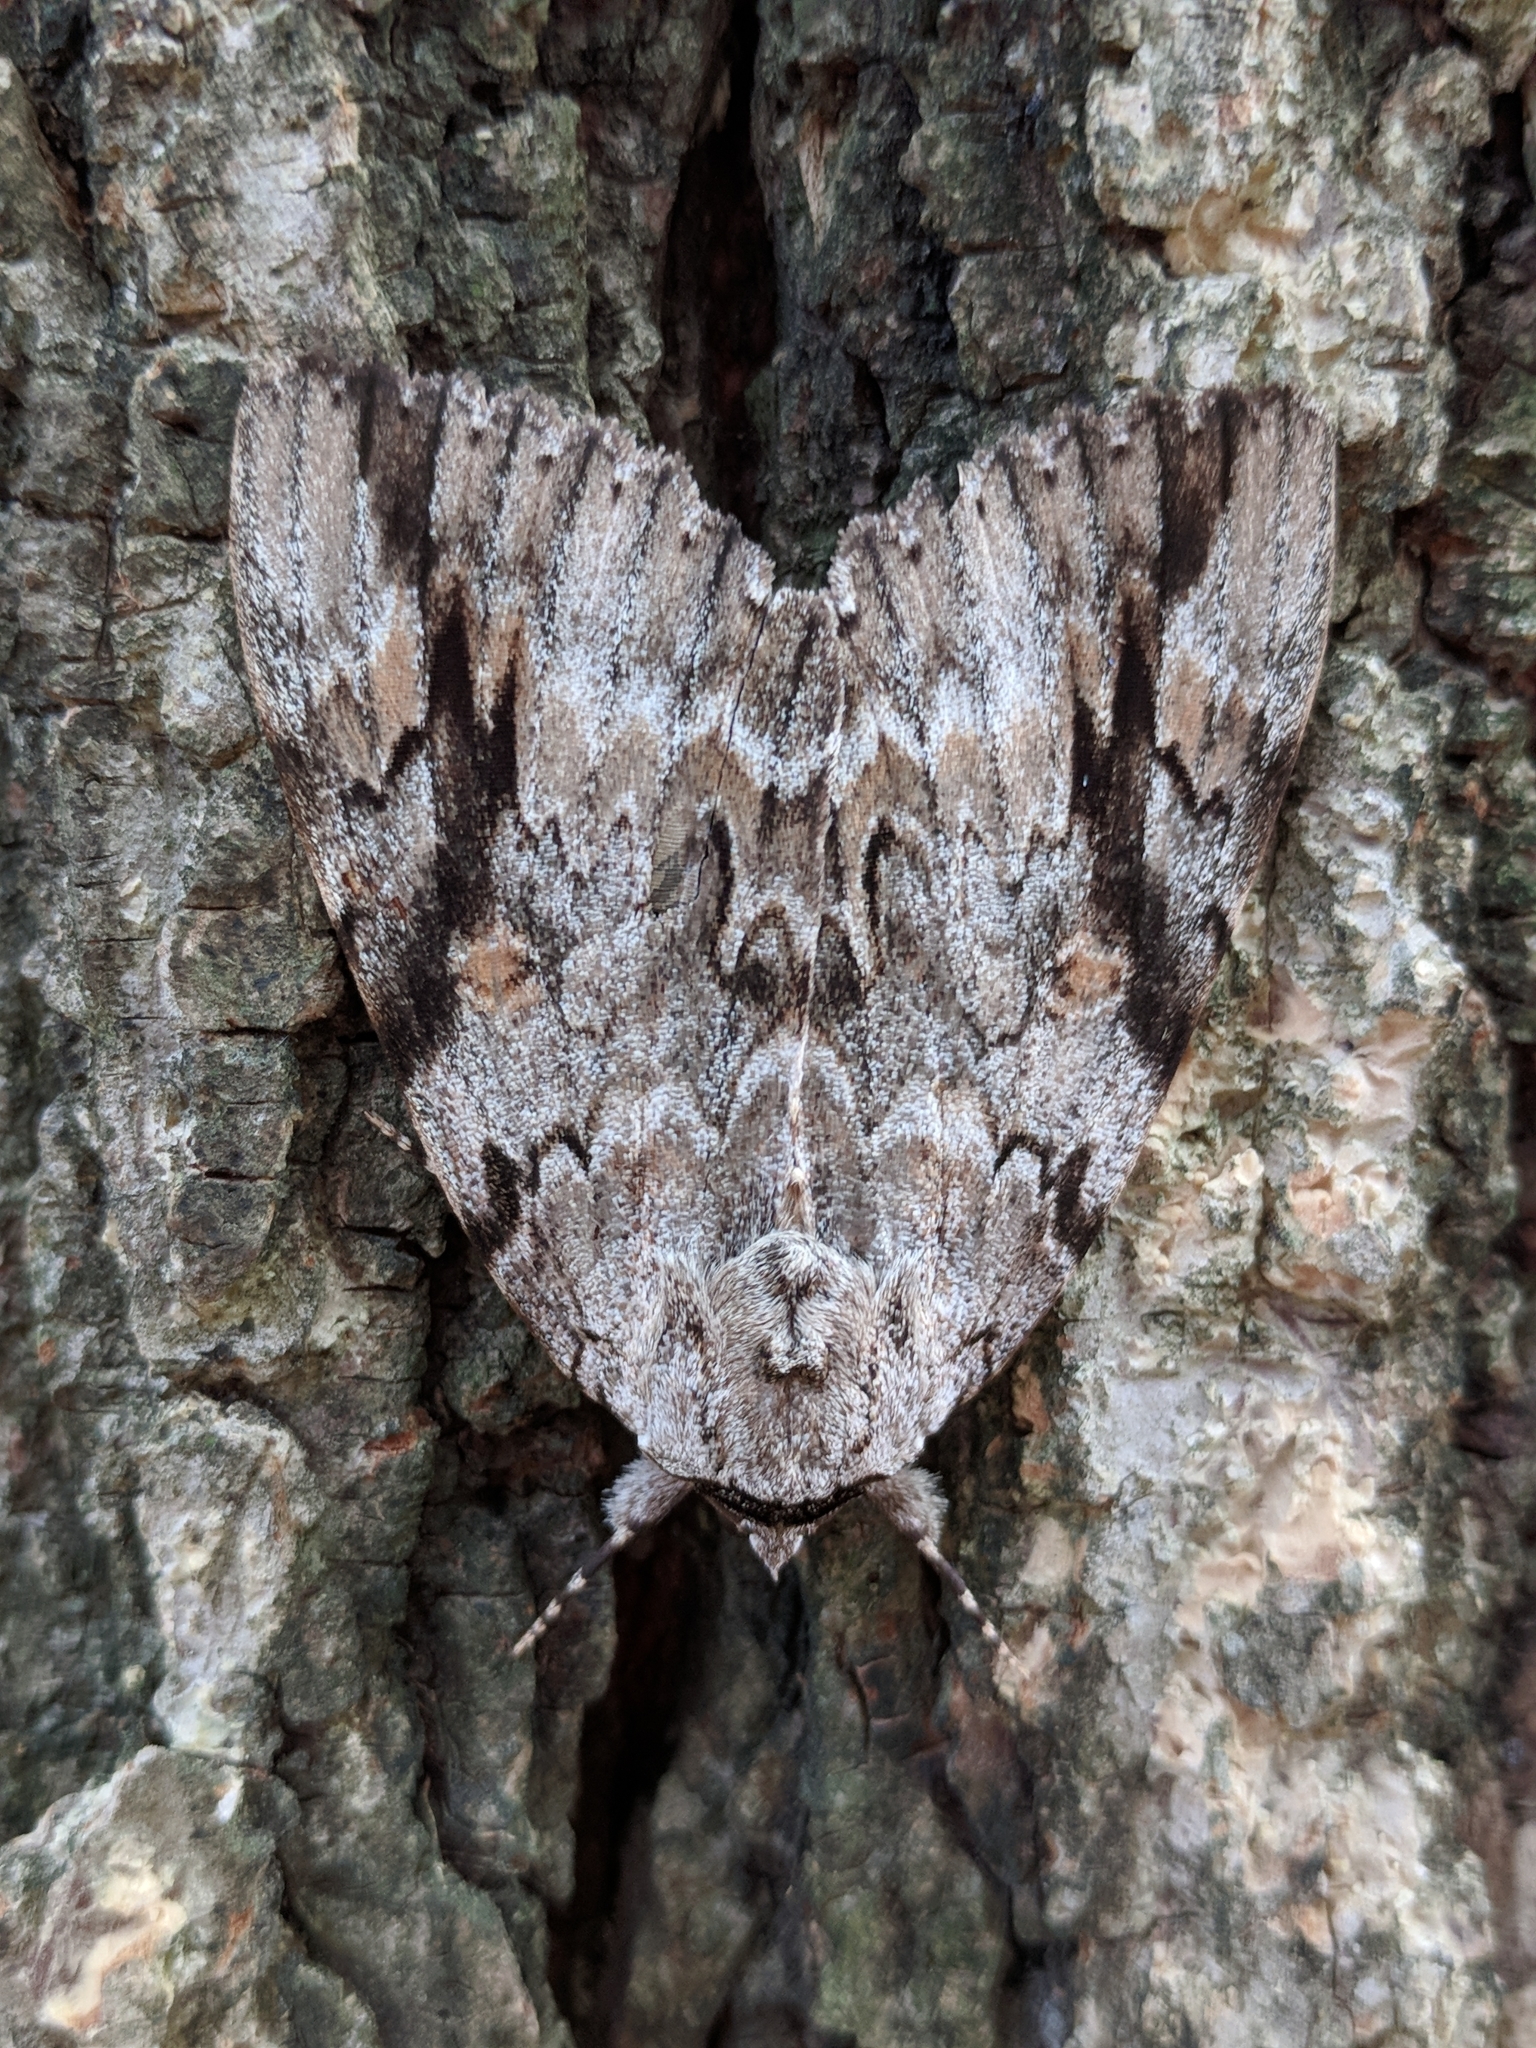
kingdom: Animalia
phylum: Arthropoda
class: Insecta
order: Lepidoptera
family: Erebidae
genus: Catocala
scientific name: Catocala maestosa
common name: Sad underwing
